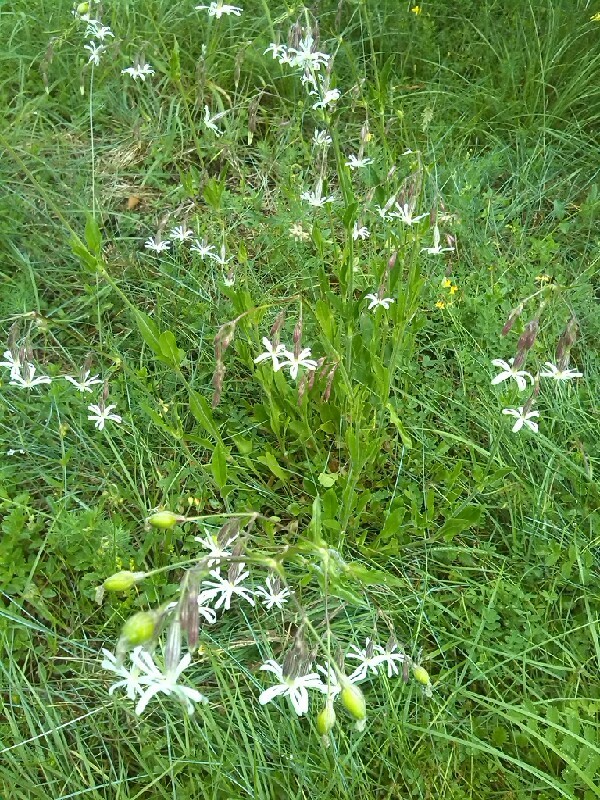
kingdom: Plantae
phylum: Tracheophyta
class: Magnoliopsida
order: Caryophyllales
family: Caryophyllaceae
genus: Silene
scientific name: Silene nutans
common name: Nottingham catchfly
